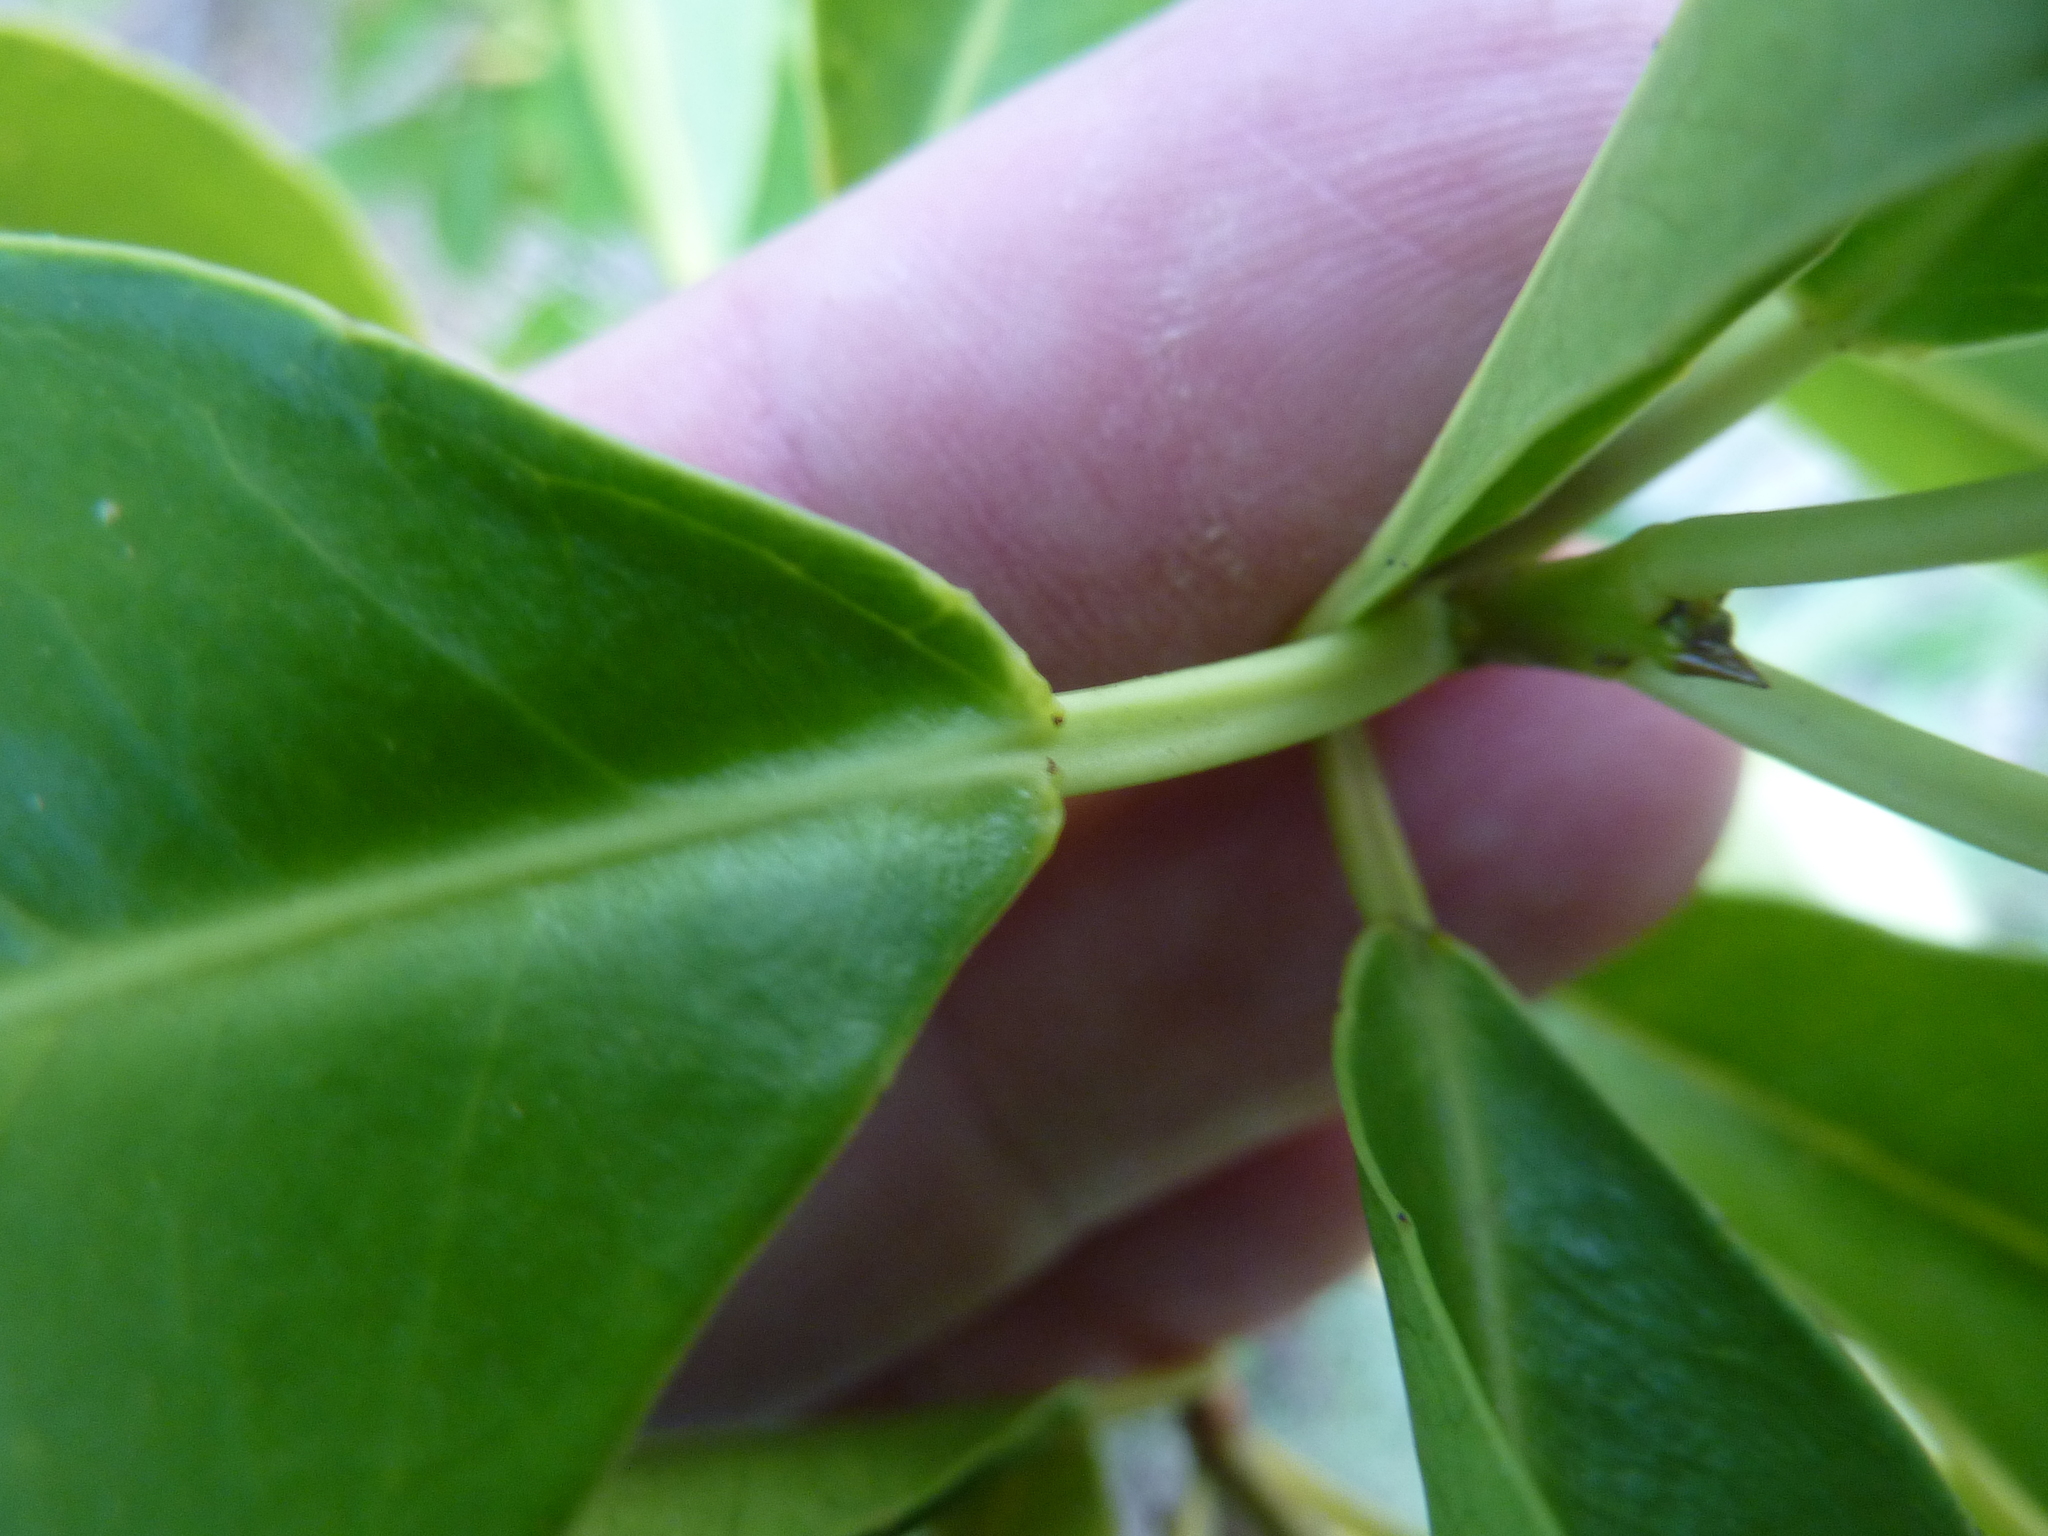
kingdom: Plantae
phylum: Tracheophyta
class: Magnoliopsida
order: Malpighiales
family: Euphorbiaceae
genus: Excoecaria
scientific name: Excoecaria agallocha
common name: River poisontree
